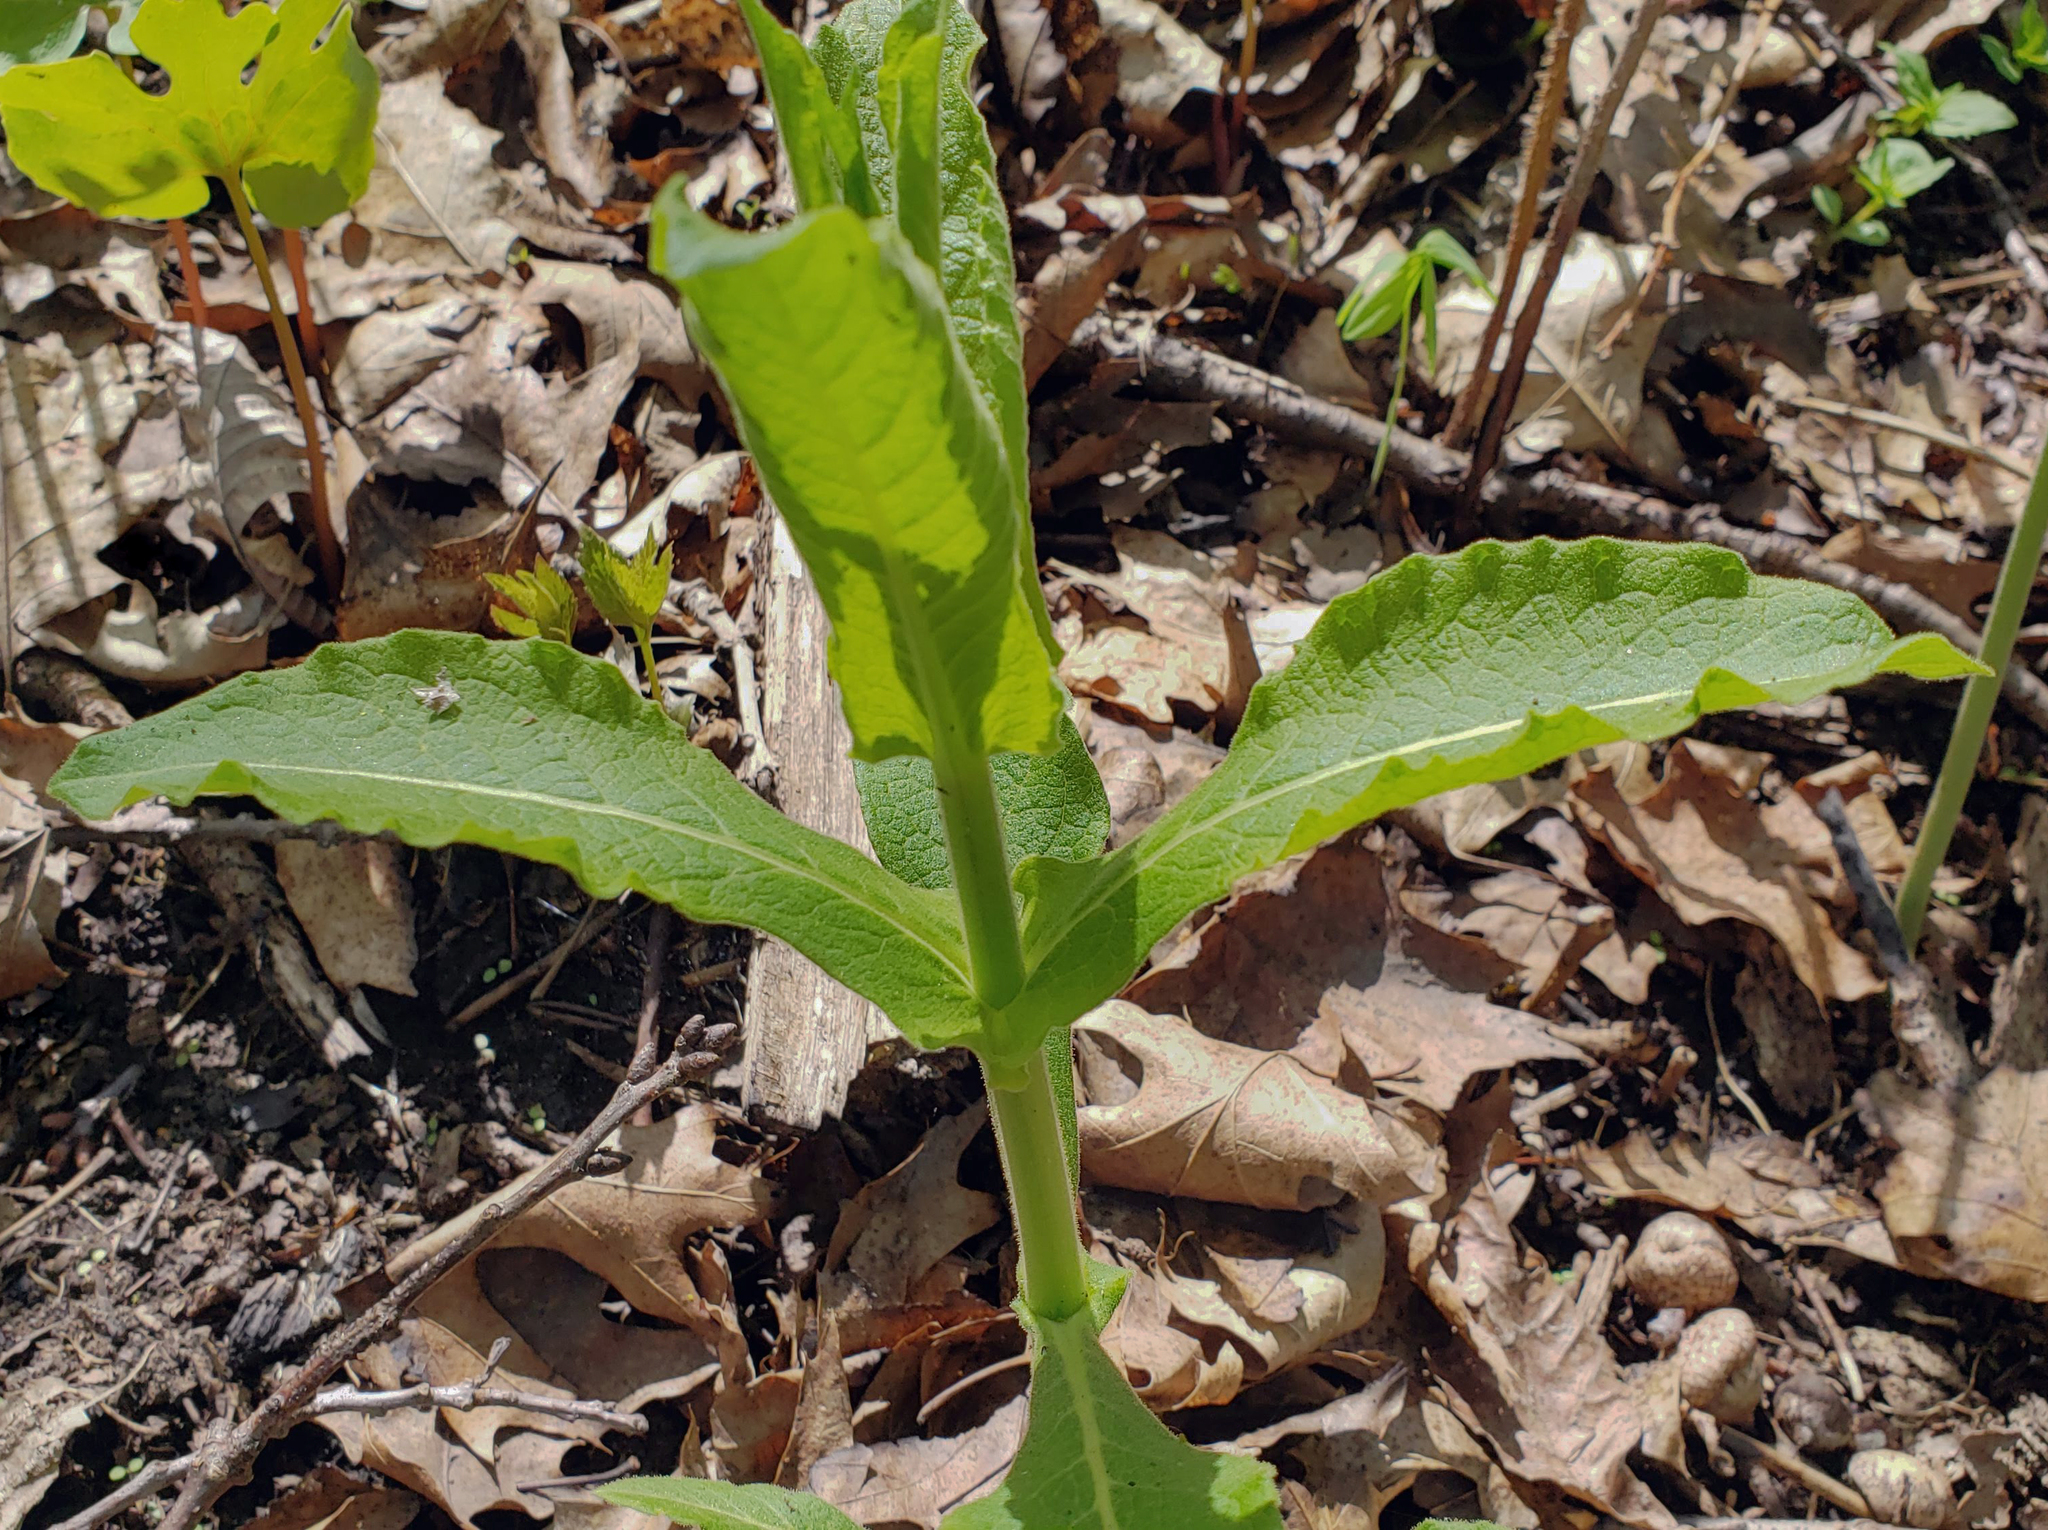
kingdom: Plantae
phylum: Tracheophyta
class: Magnoliopsida
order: Dipsacales
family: Caprifoliaceae
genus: Triosteum
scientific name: Triosteum perfoliatum
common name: Common horse-gentian
